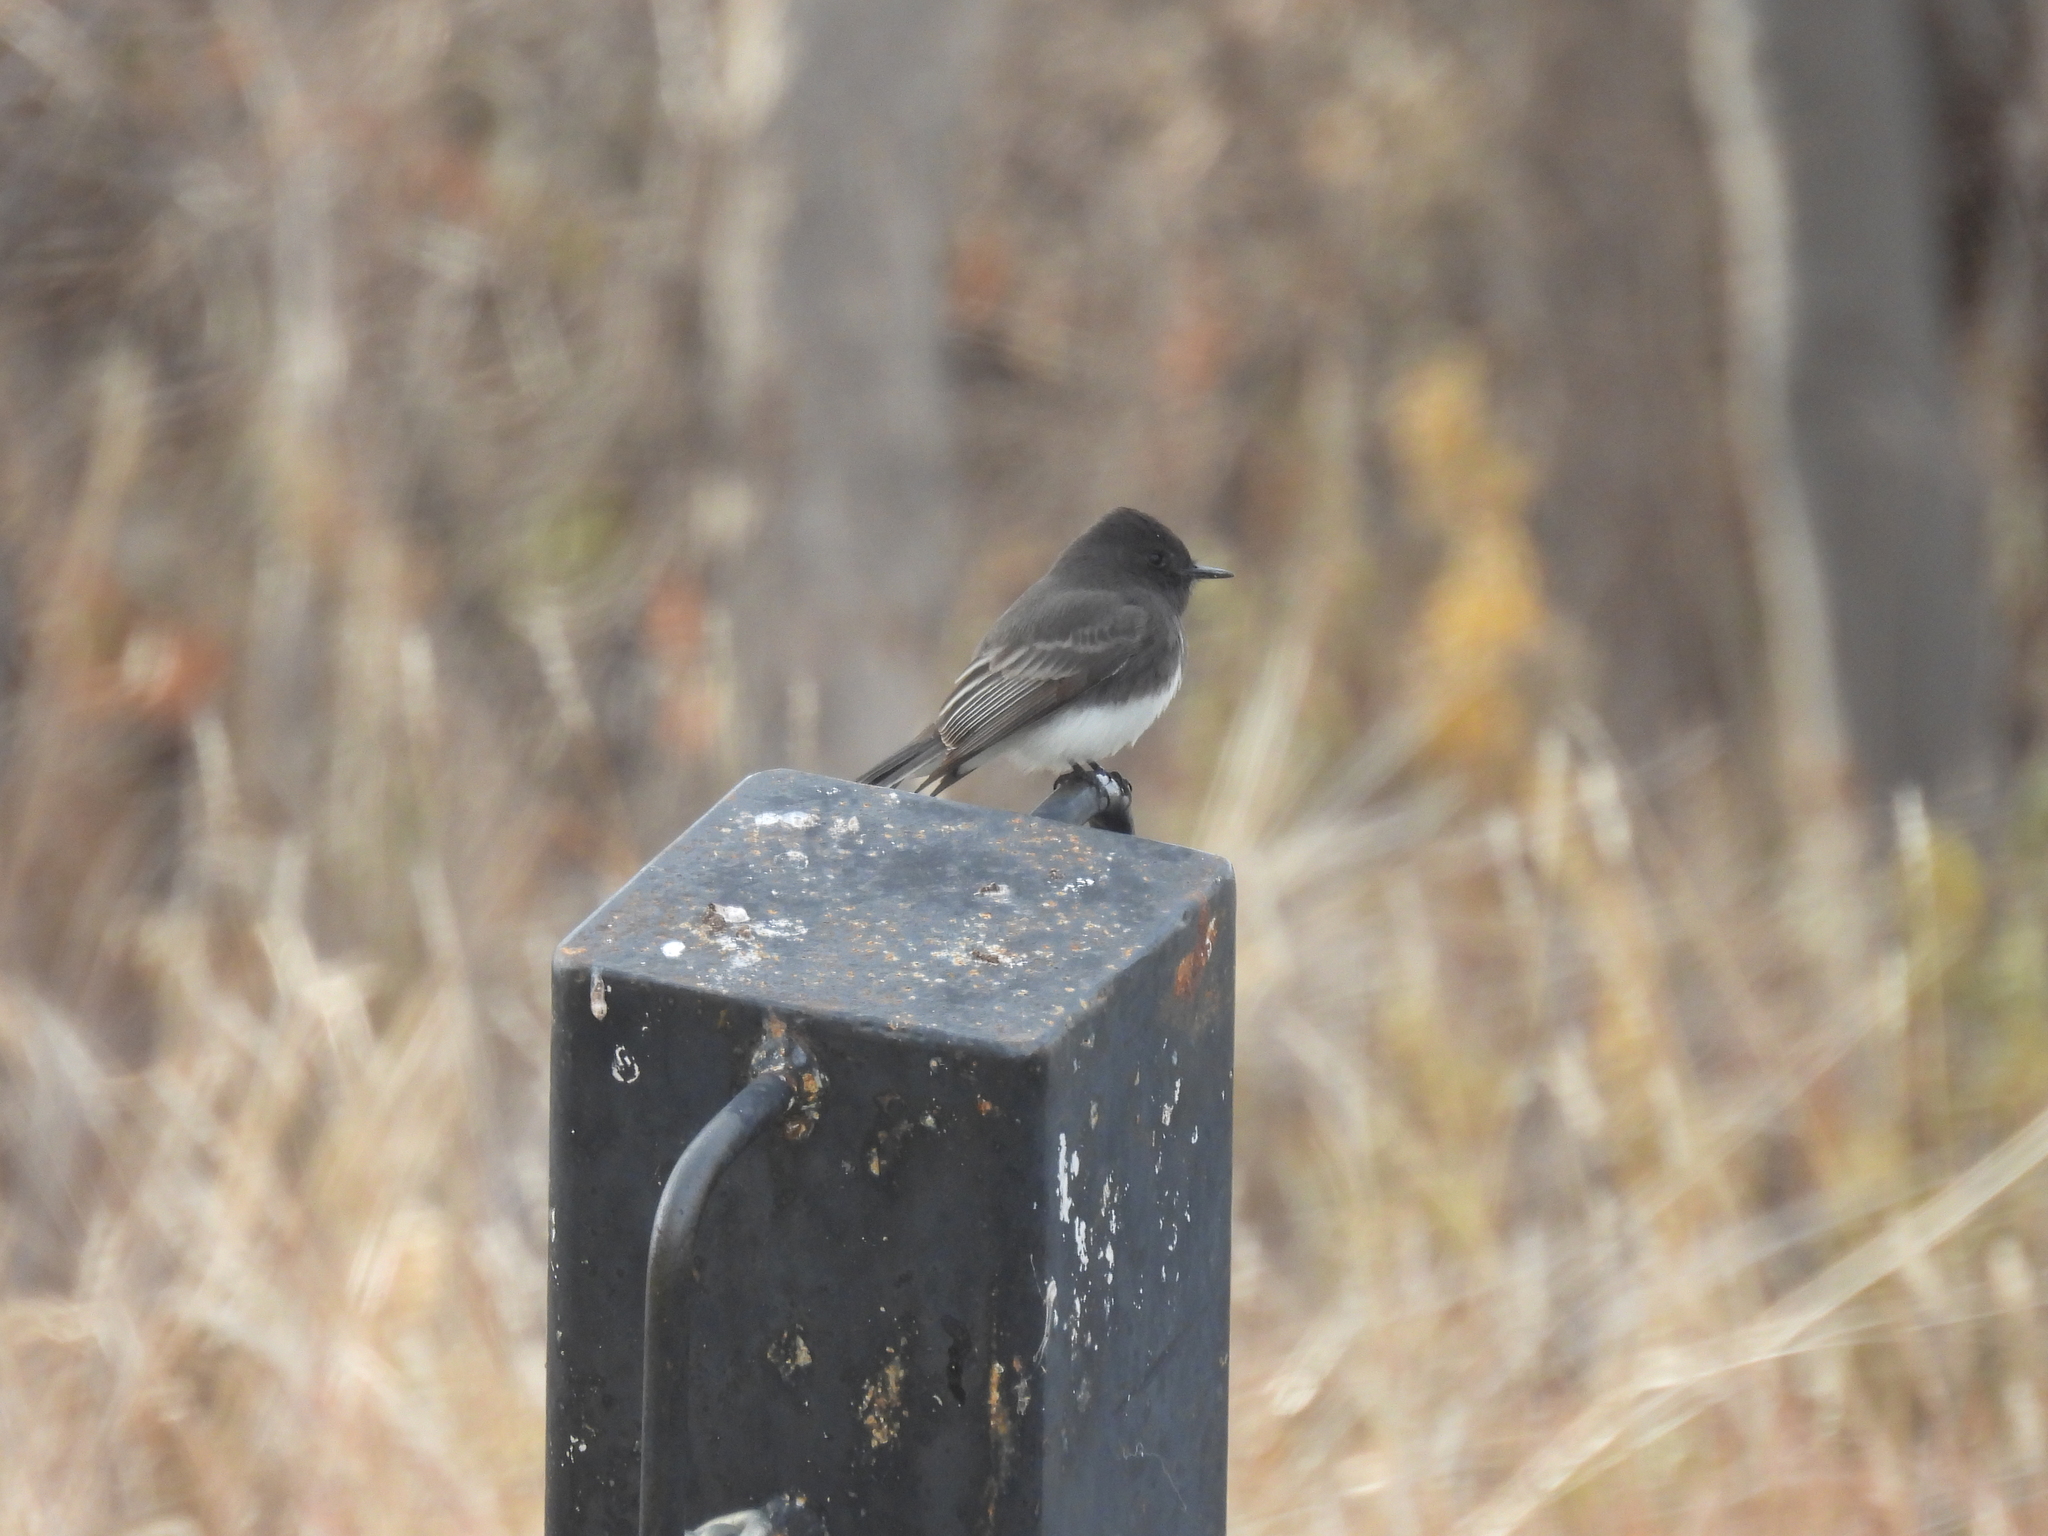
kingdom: Animalia
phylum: Chordata
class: Aves
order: Passeriformes
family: Tyrannidae
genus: Sayornis
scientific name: Sayornis nigricans
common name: Black phoebe
